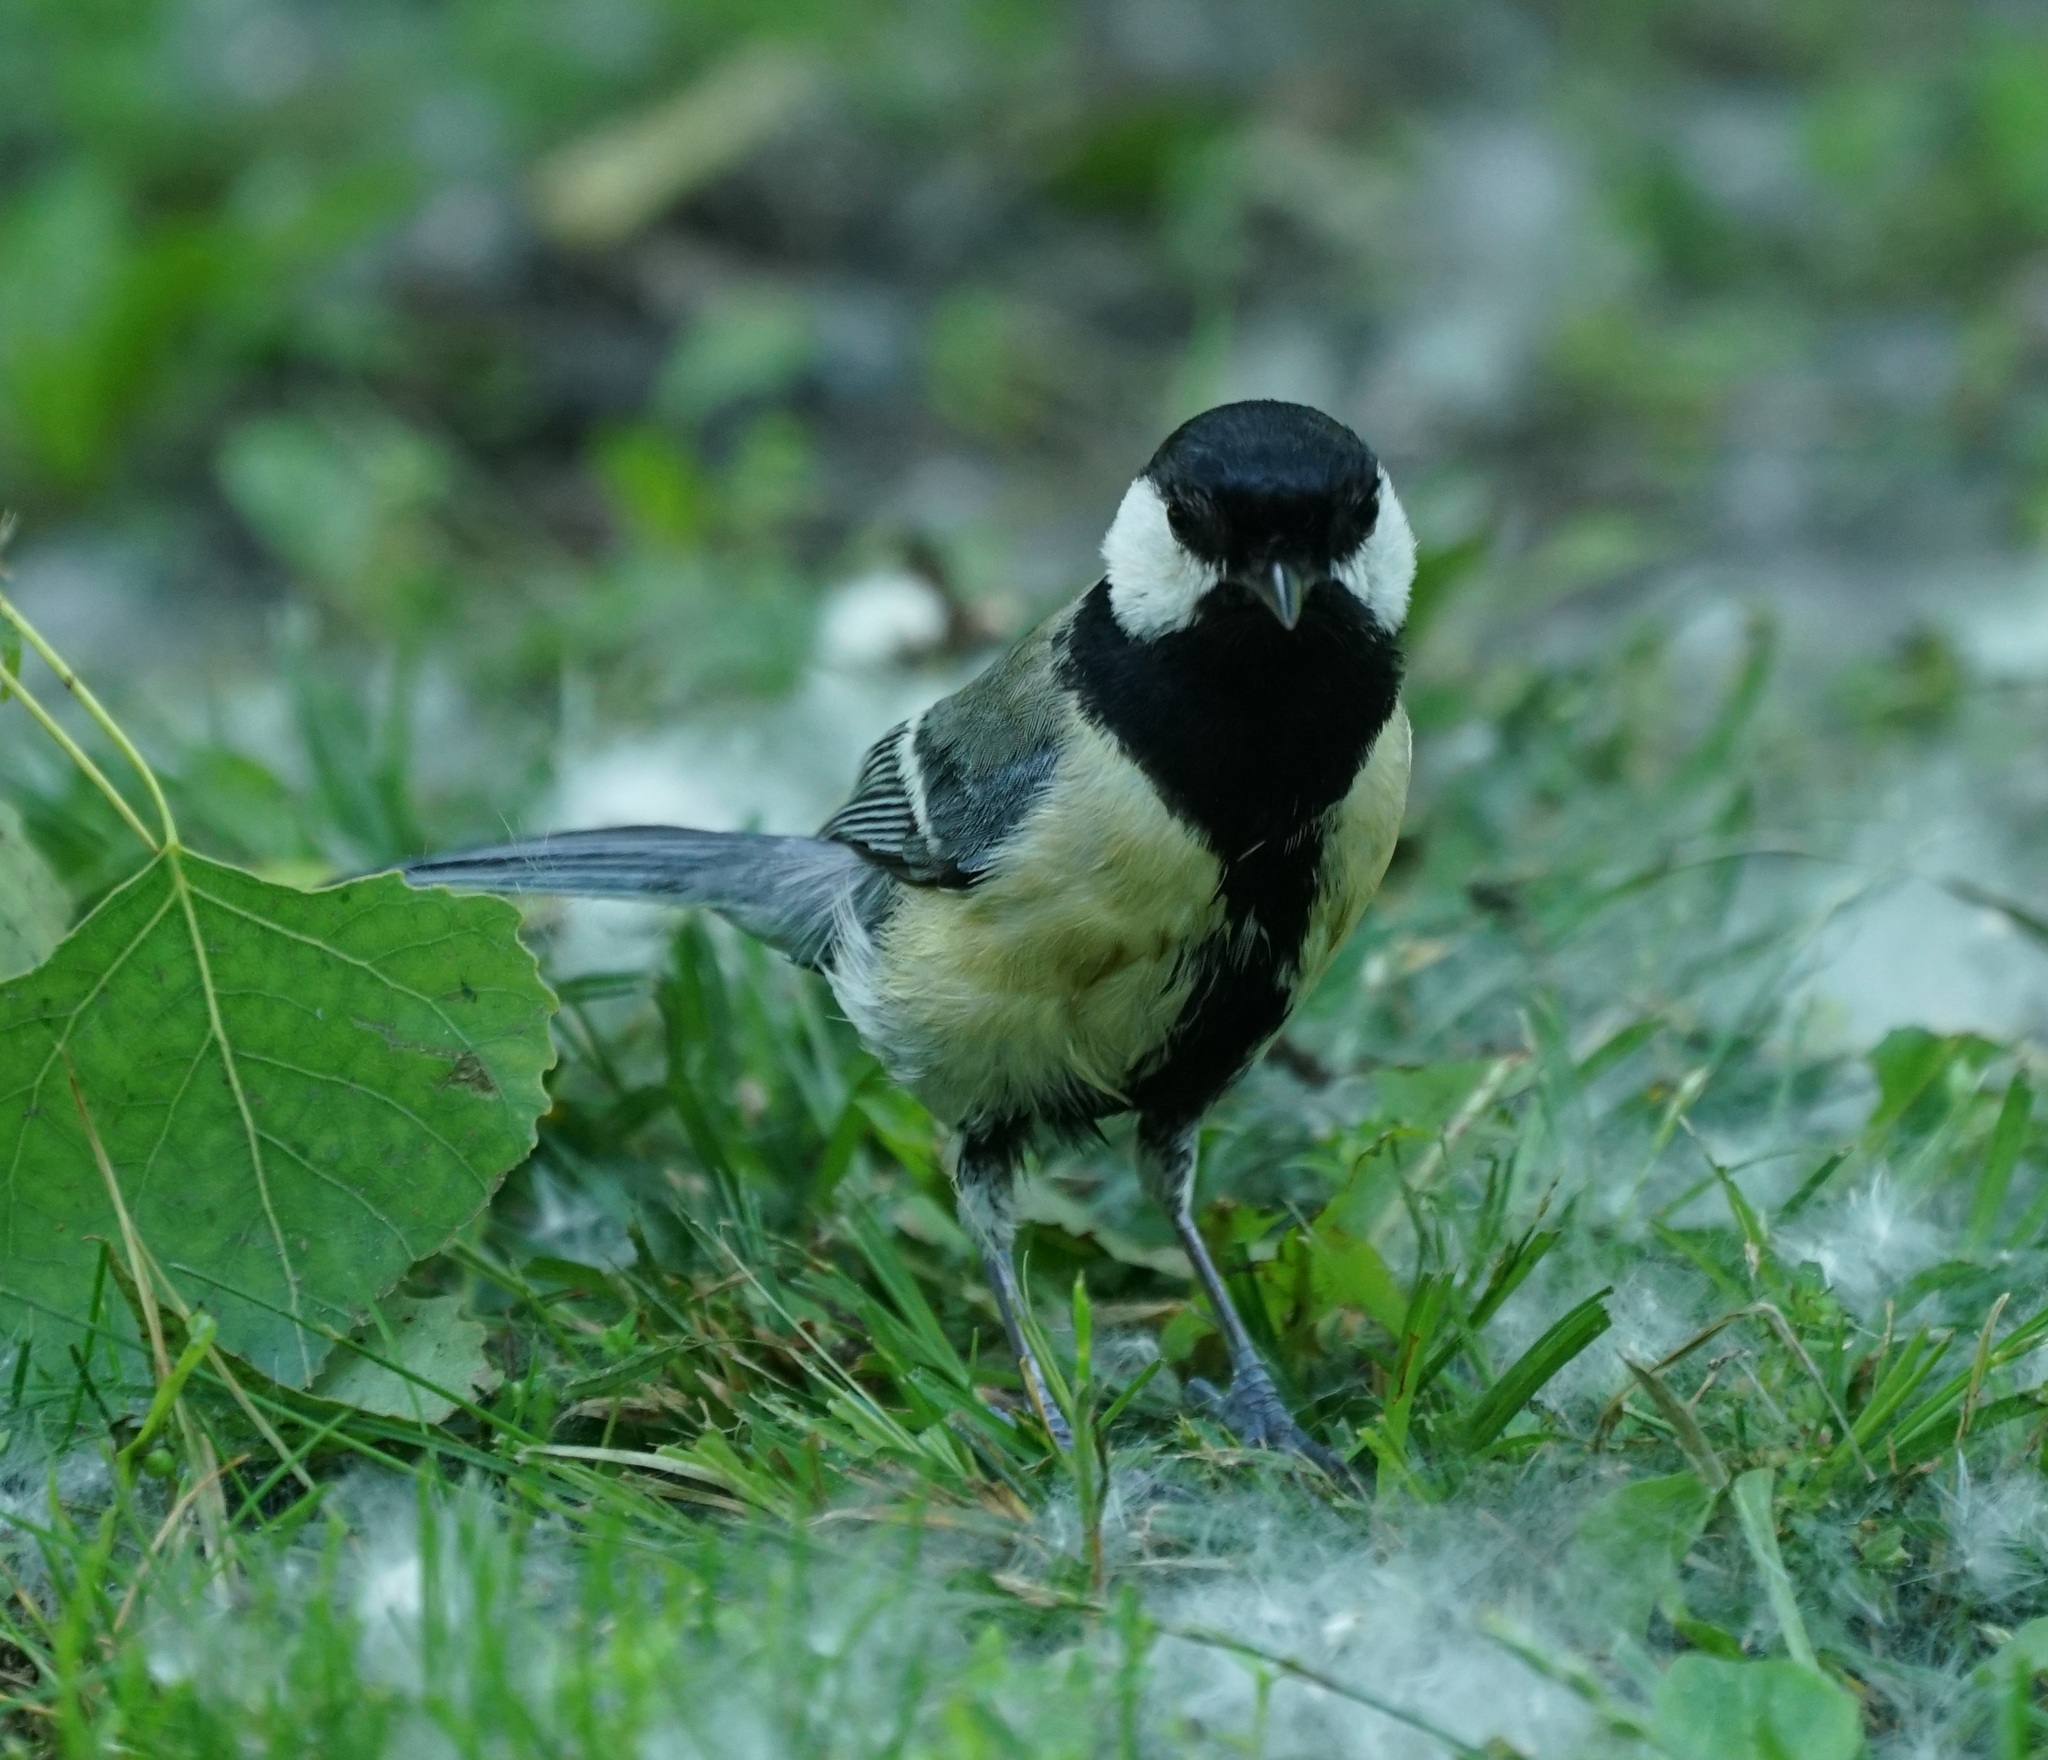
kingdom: Animalia
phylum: Chordata
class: Aves
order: Passeriformes
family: Paridae
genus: Parus
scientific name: Parus major
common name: Great tit
